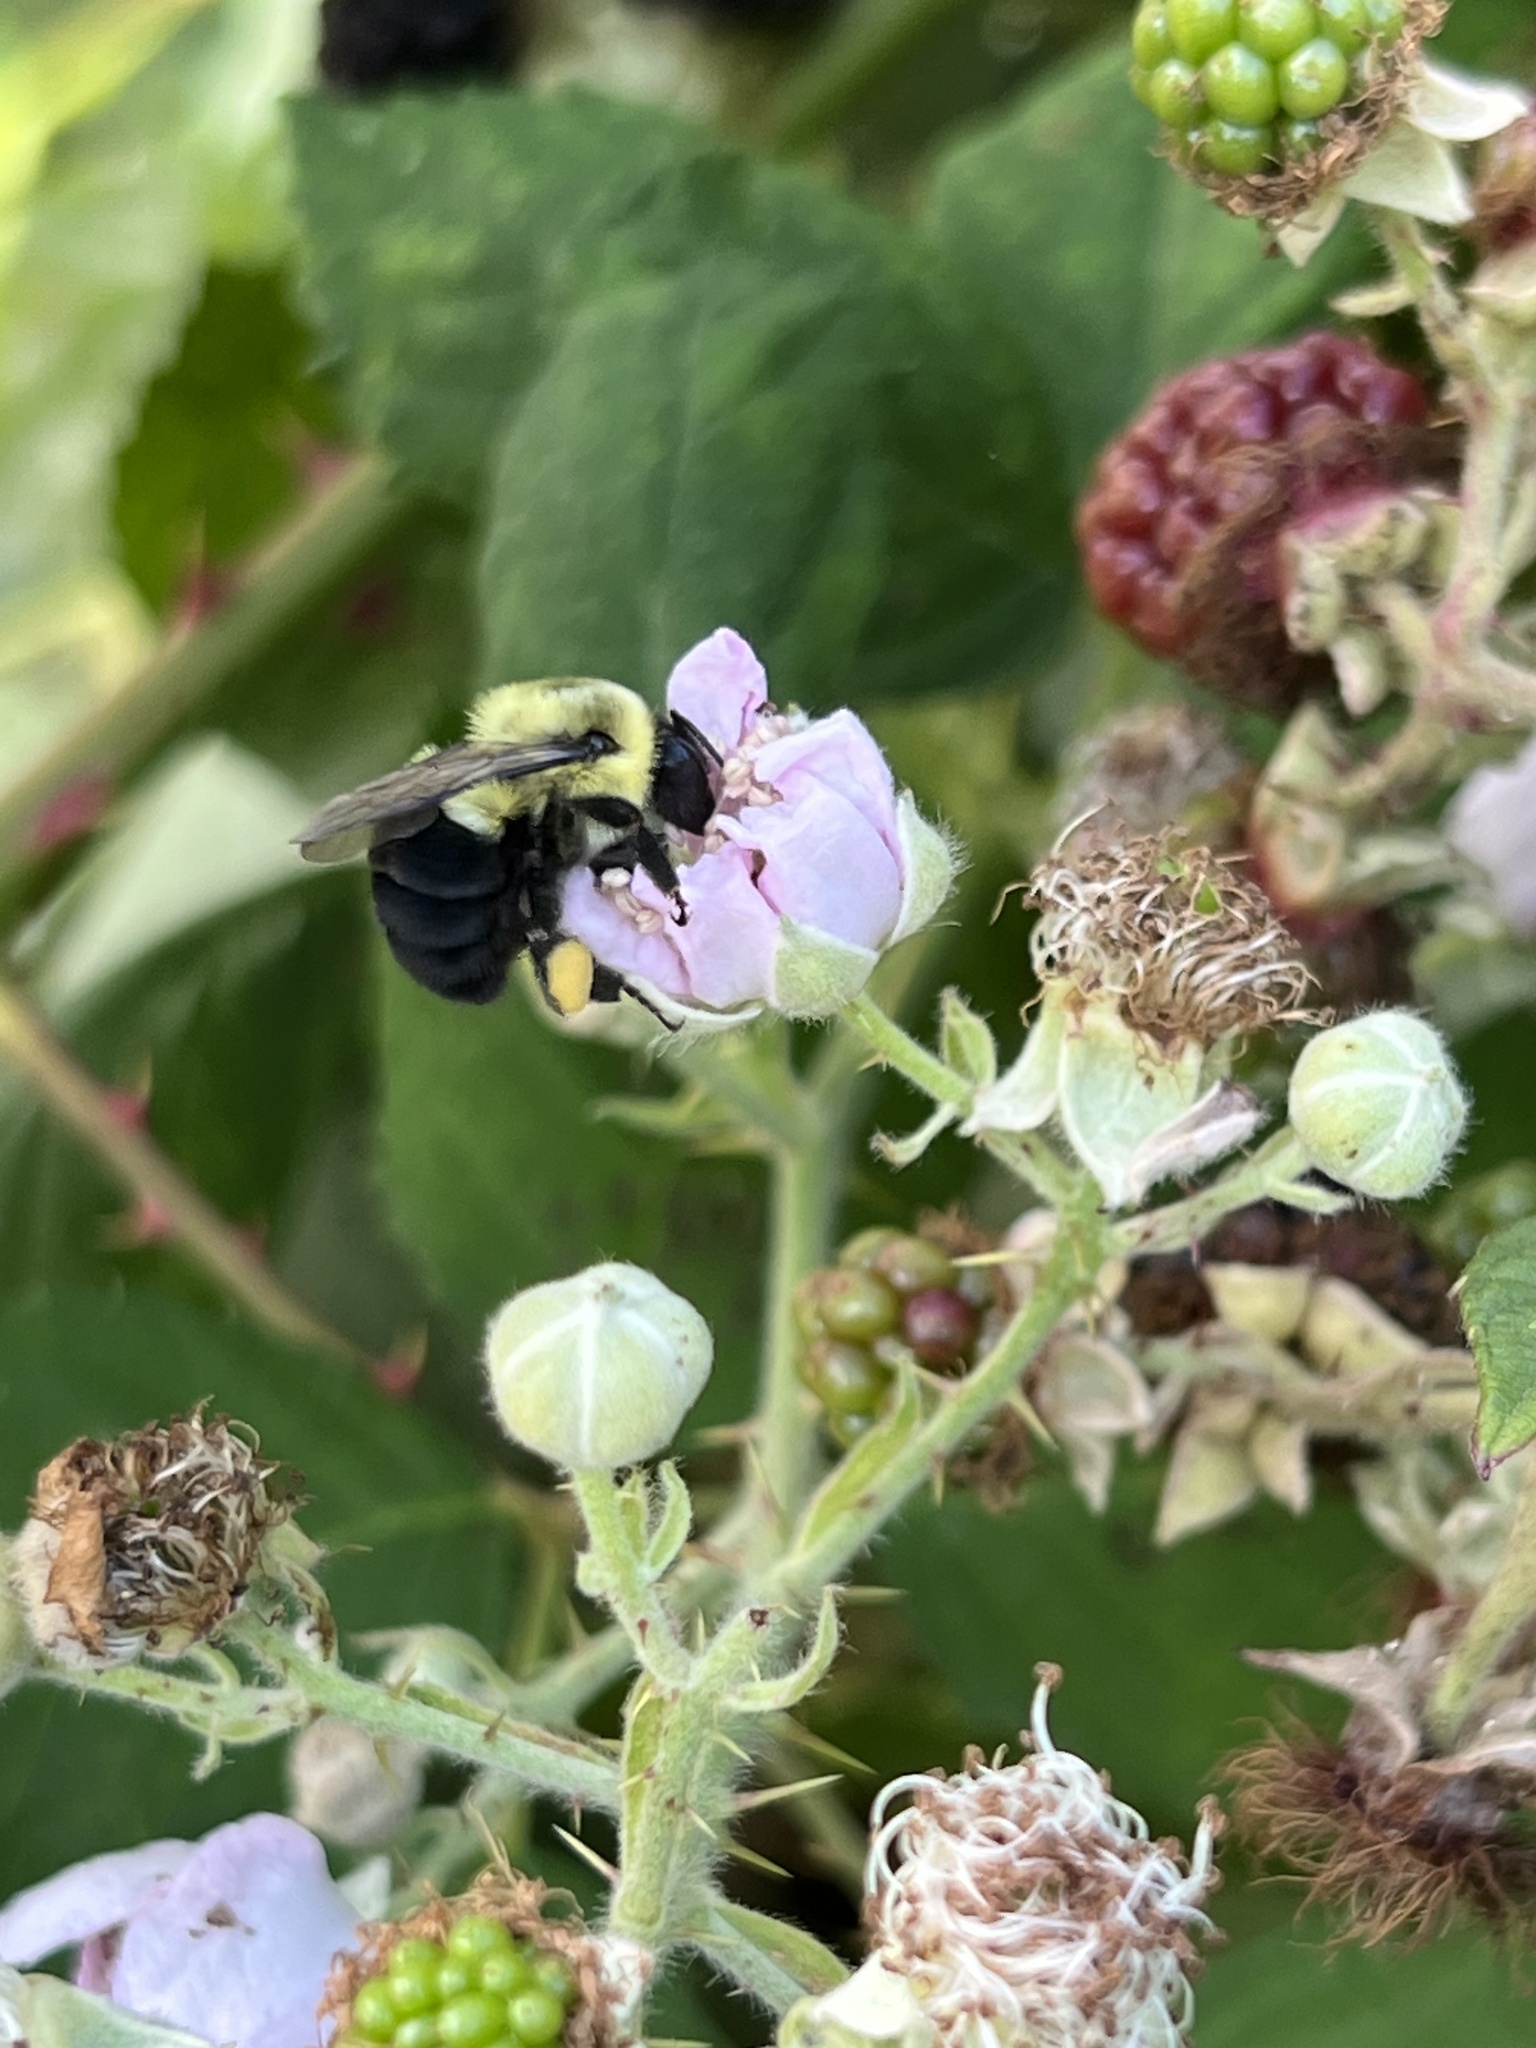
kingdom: Animalia
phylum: Arthropoda
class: Insecta
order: Hymenoptera
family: Apidae
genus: Bombus
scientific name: Bombus impatiens
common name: Common eastern bumble bee
